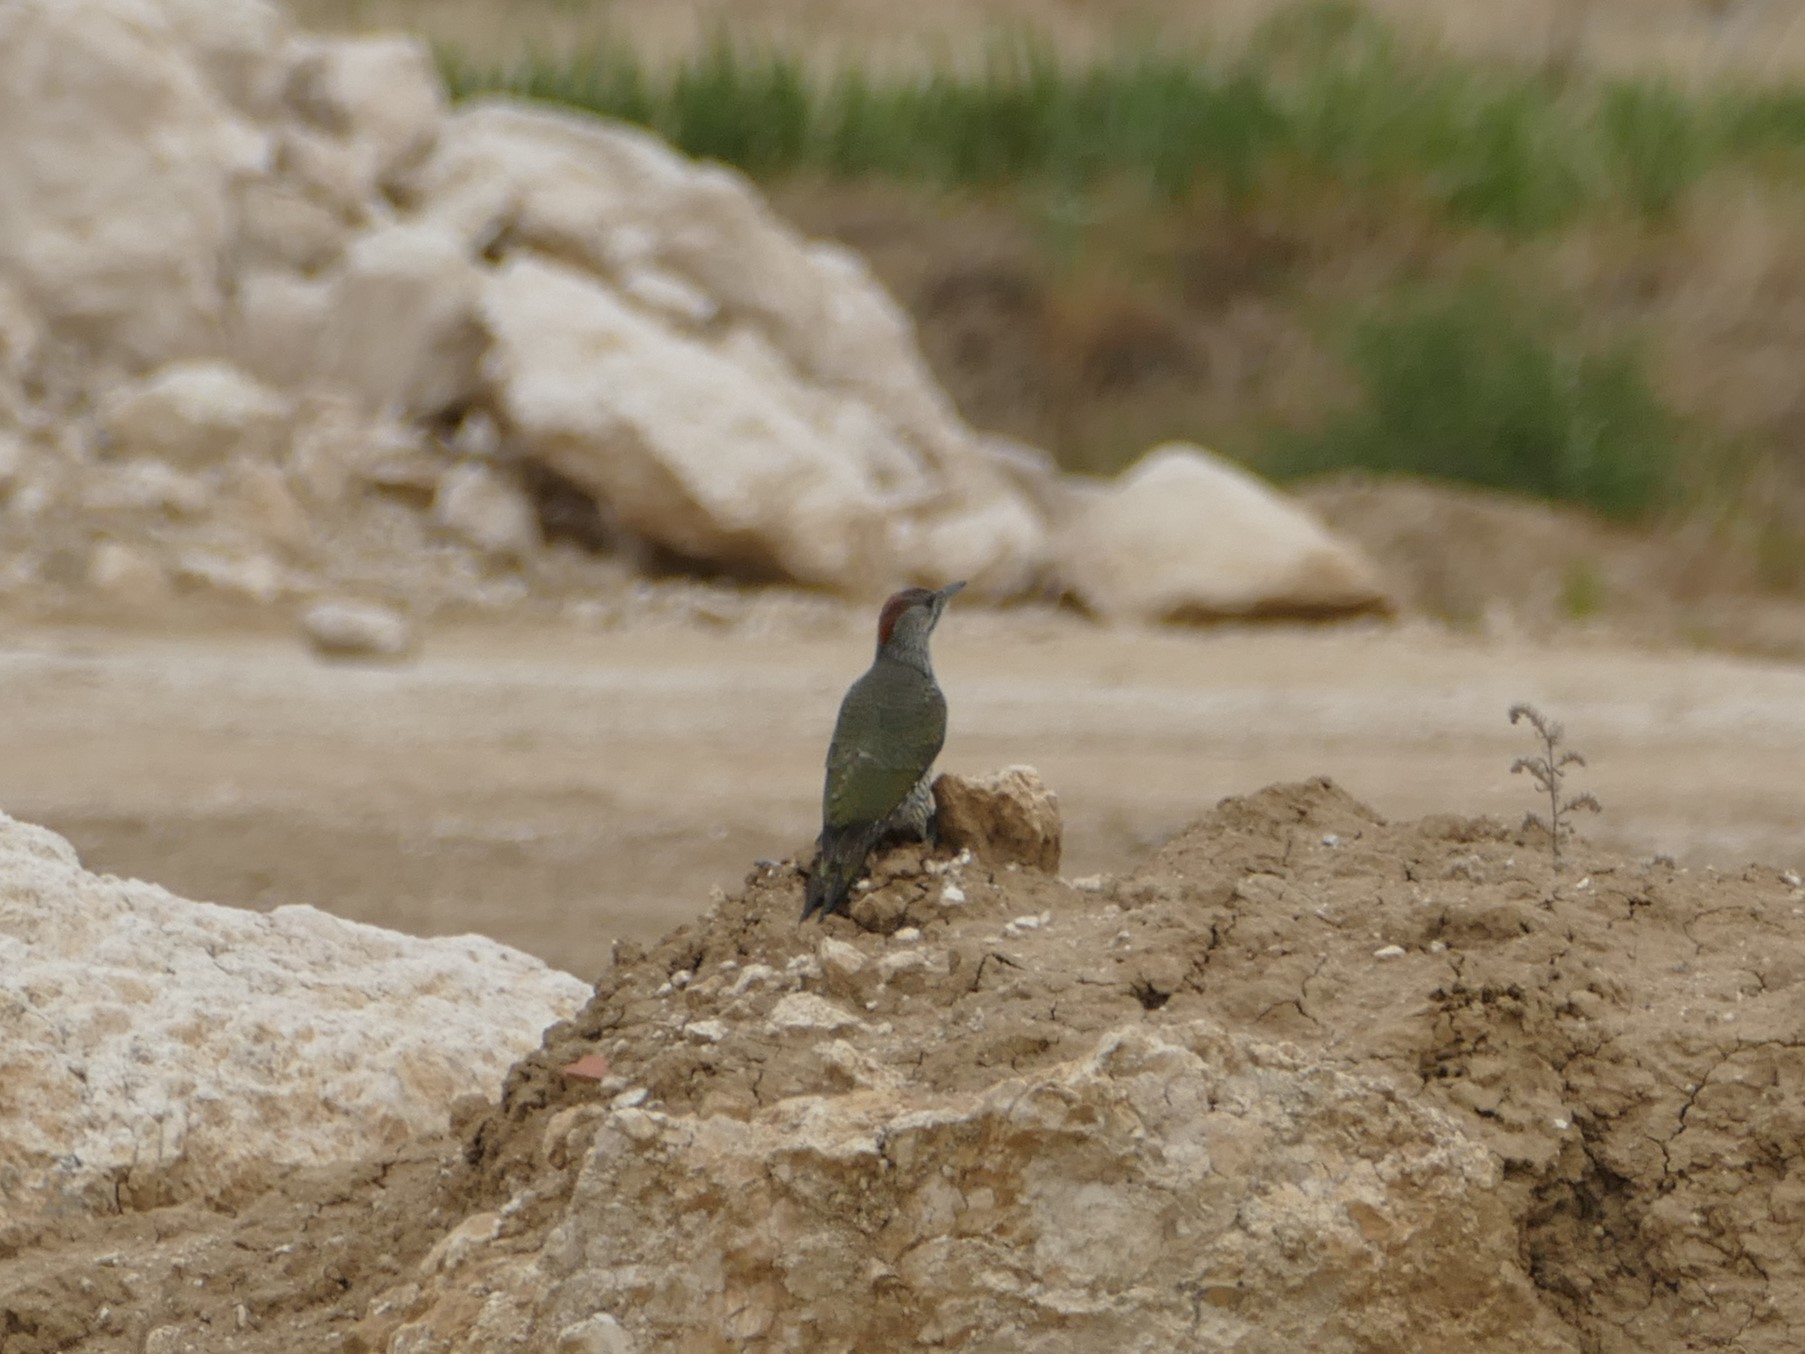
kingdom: Animalia
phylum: Chordata
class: Aves
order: Piciformes
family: Picidae
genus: Picus
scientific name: Picus sharpei
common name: Iberian green woodpecker
